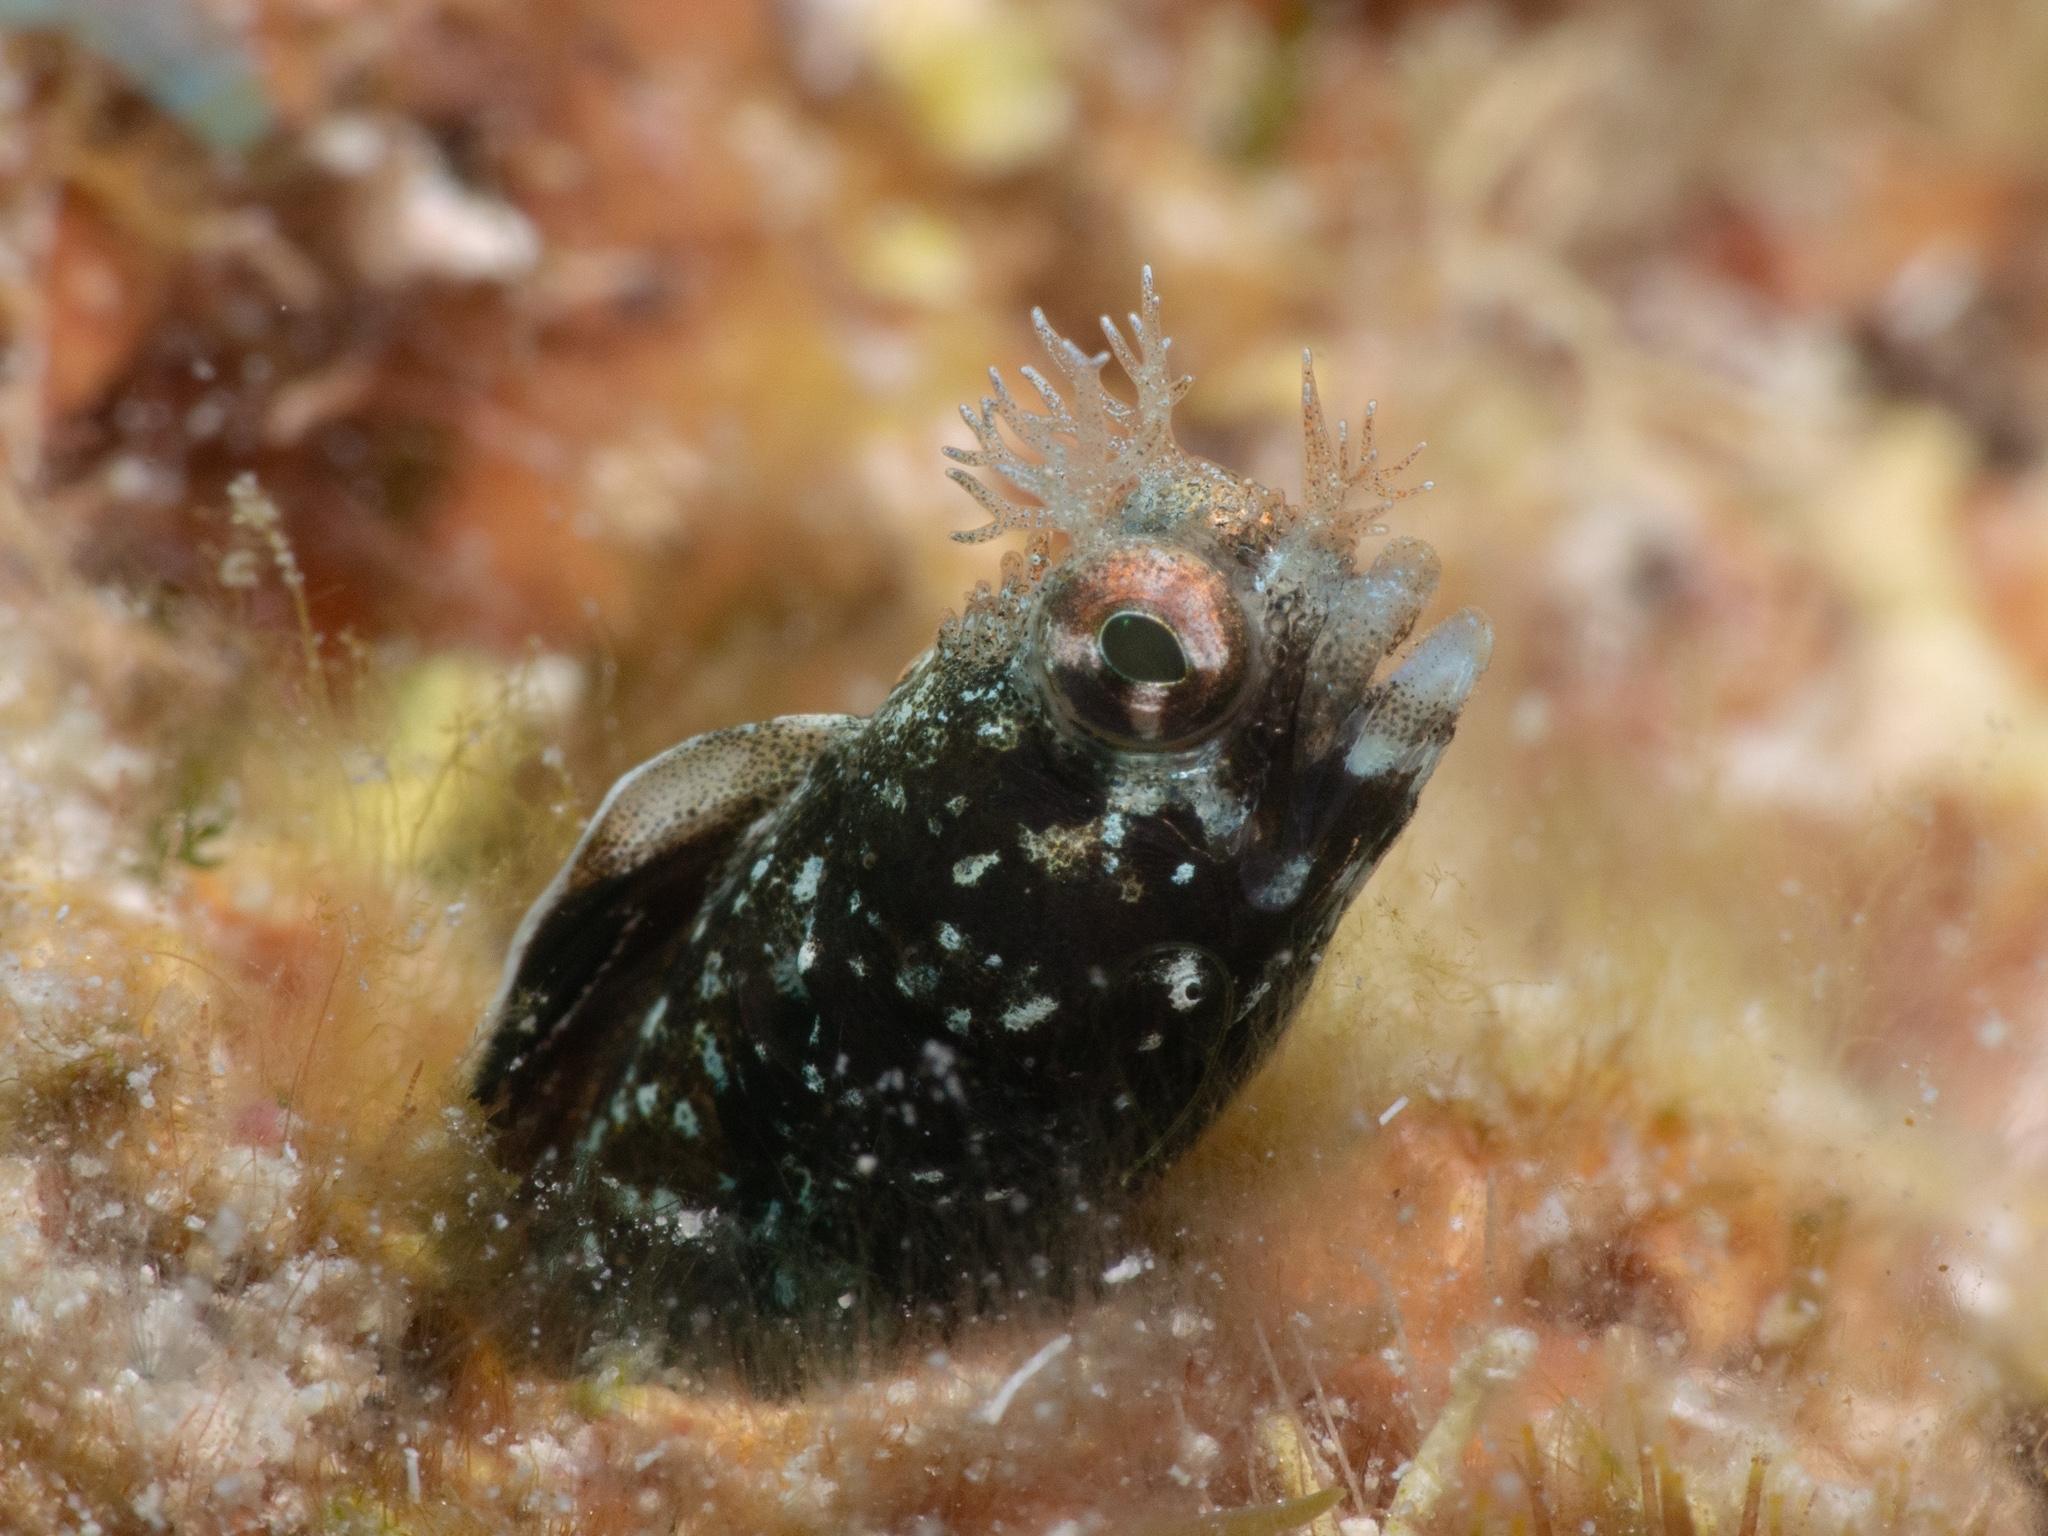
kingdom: Animalia
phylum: Chordata
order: Perciformes
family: Chaenopsidae
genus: Acanthemblemaria
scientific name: Acanthemblemaria aspera
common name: Roughhead blenny
